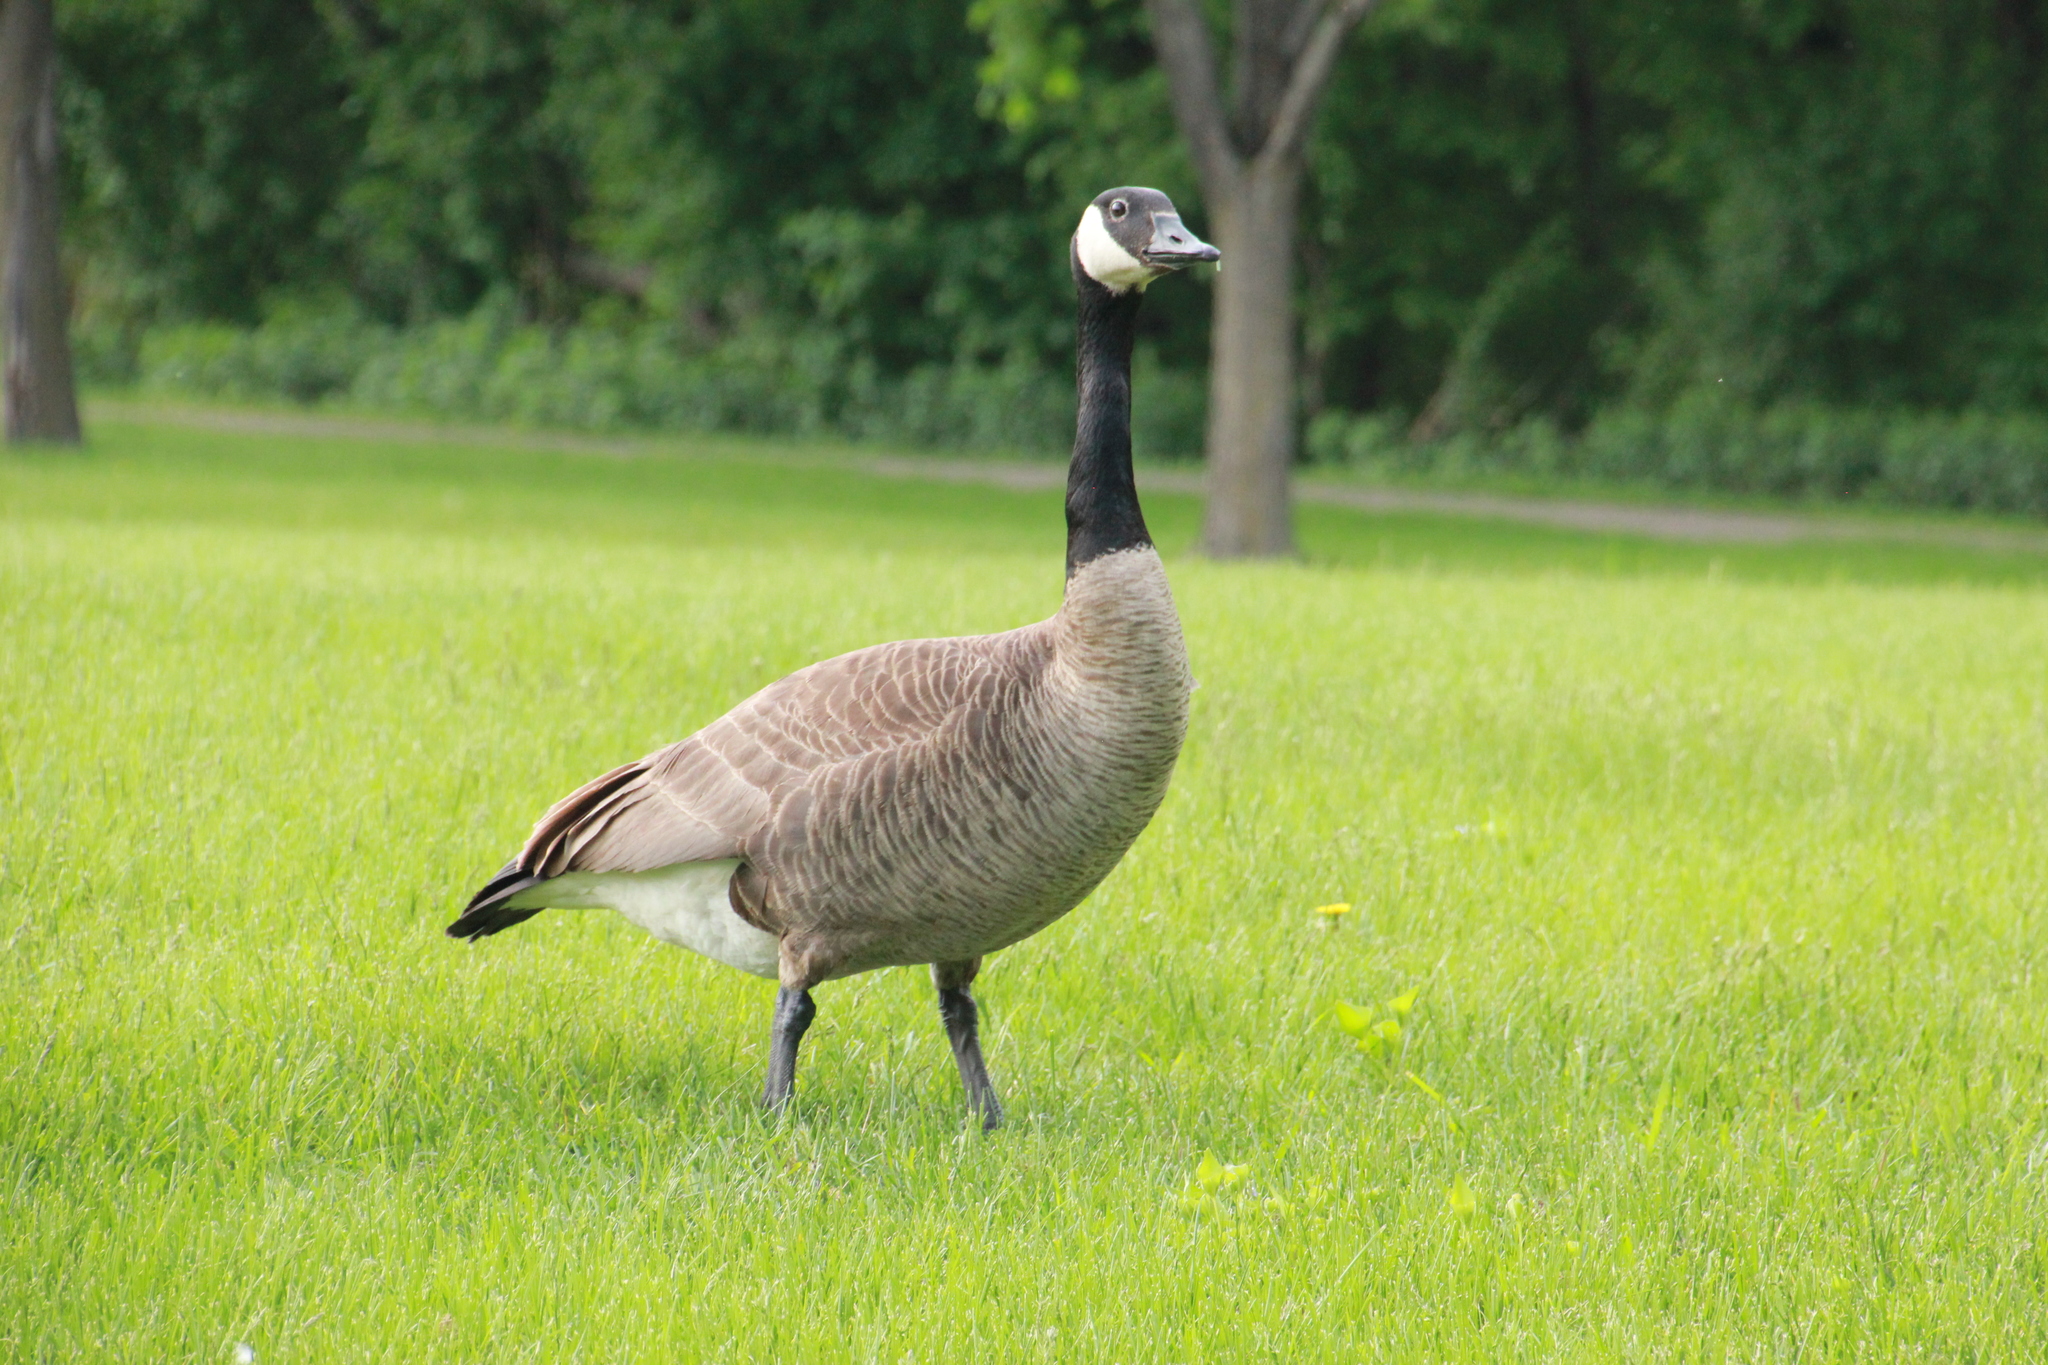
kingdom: Animalia
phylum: Chordata
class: Aves
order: Anseriformes
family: Anatidae
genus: Branta
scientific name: Branta canadensis
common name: Canada goose
